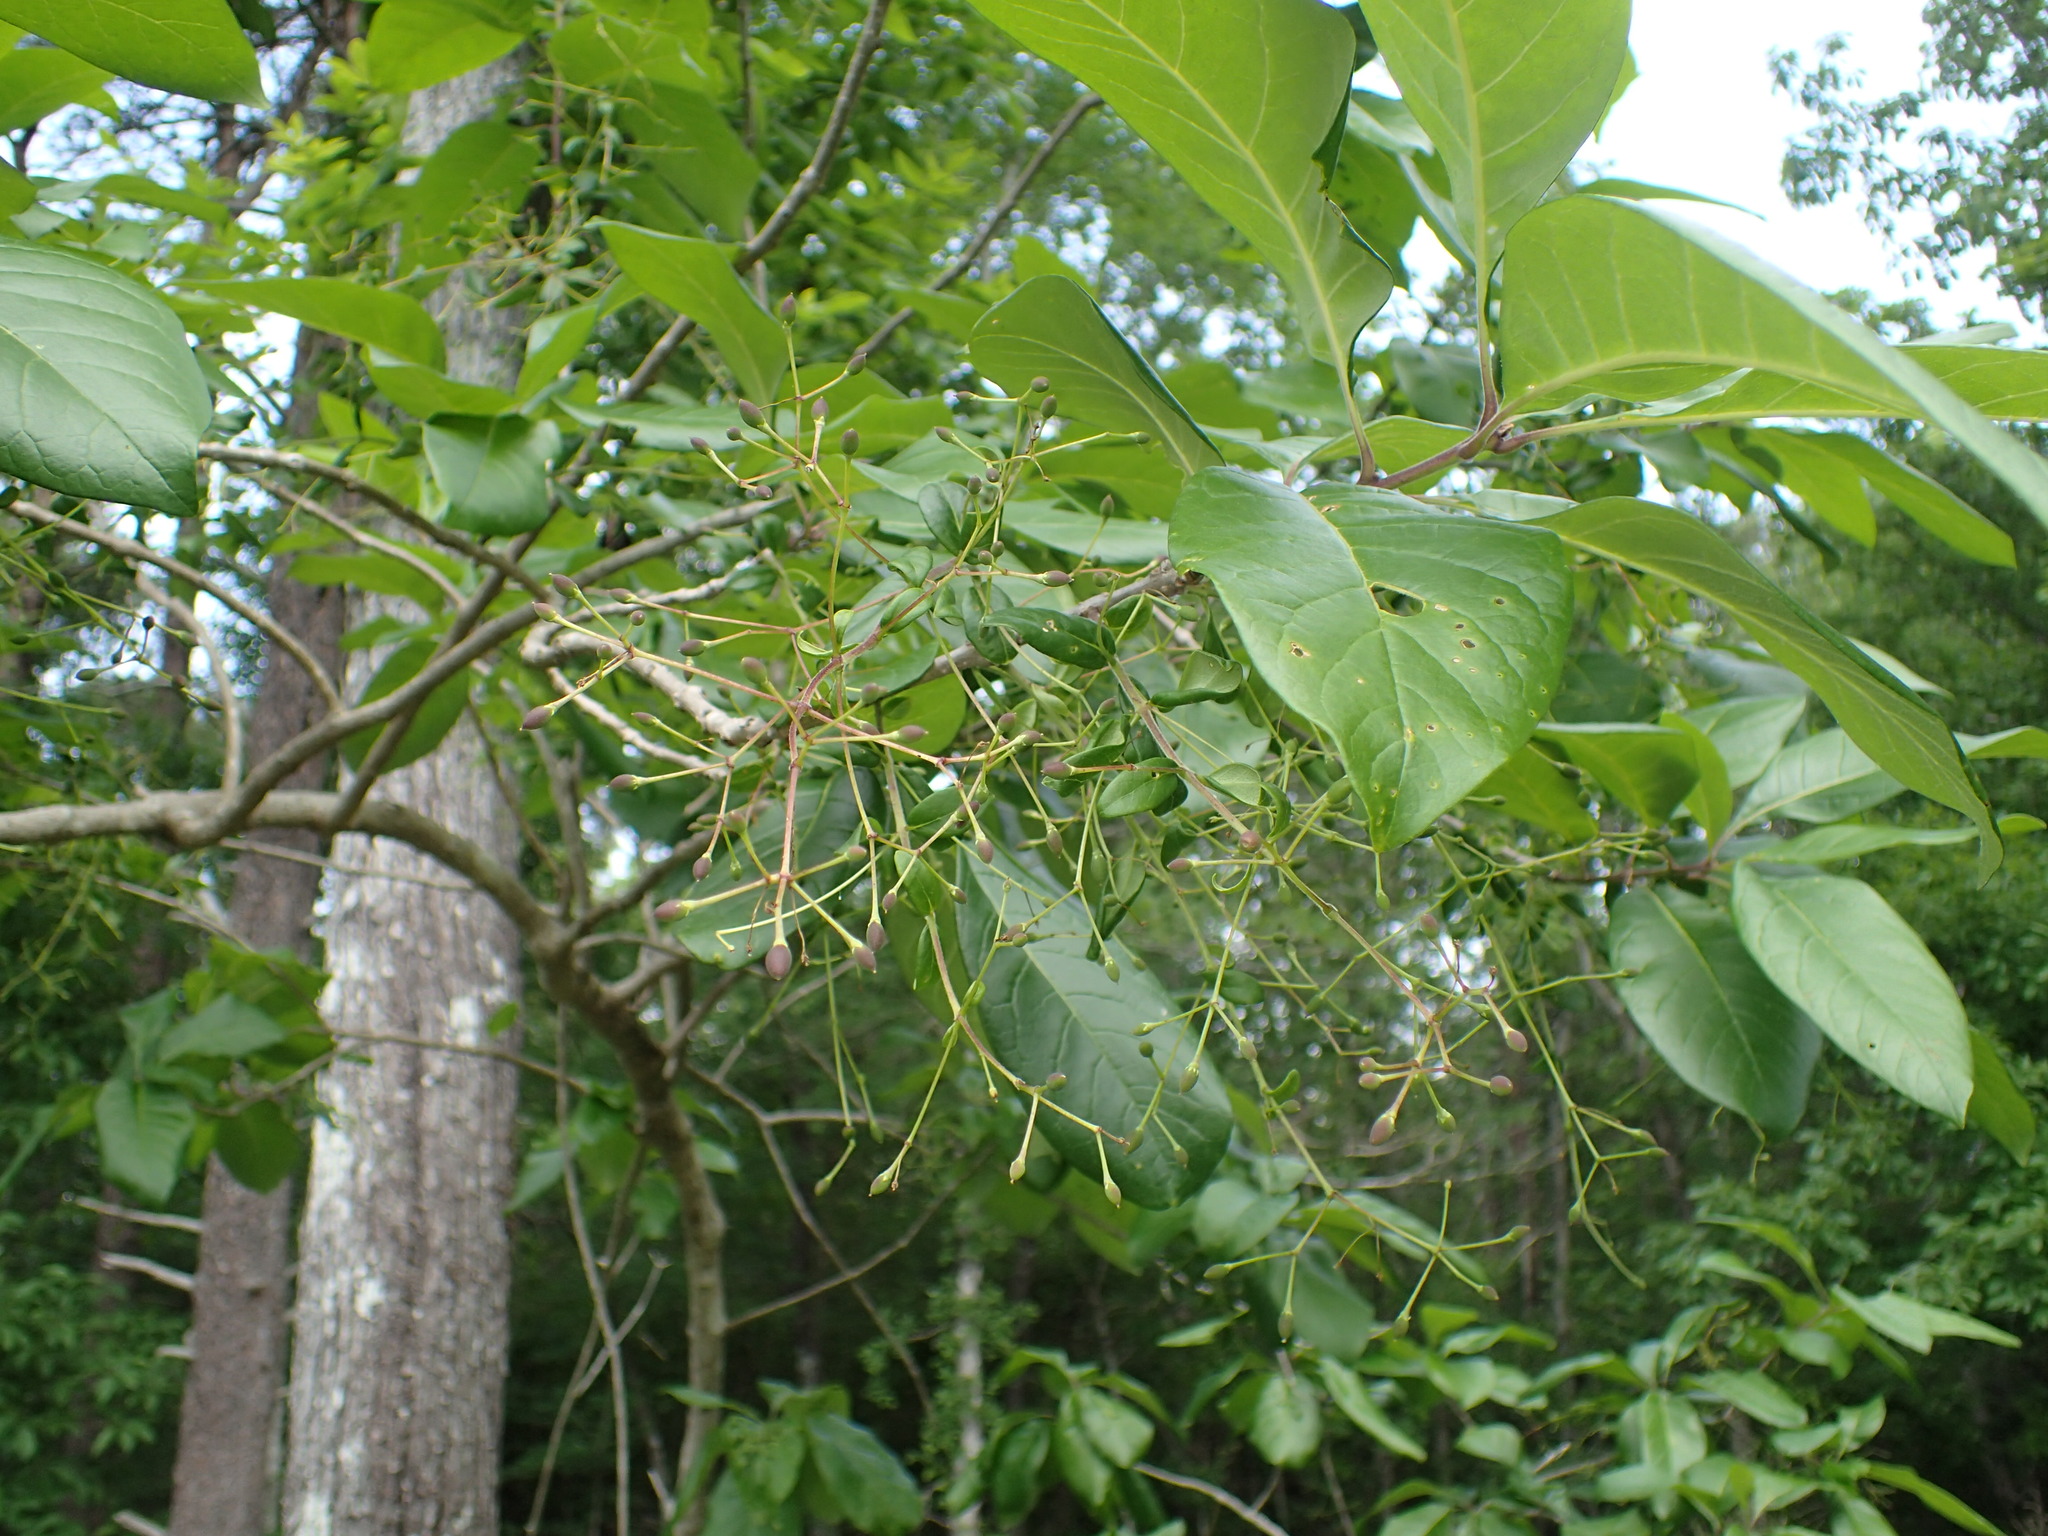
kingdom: Plantae
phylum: Tracheophyta
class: Magnoliopsida
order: Lamiales
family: Oleaceae
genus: Chionanthus
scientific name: Chionanthus virginicus
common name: American fringetree
